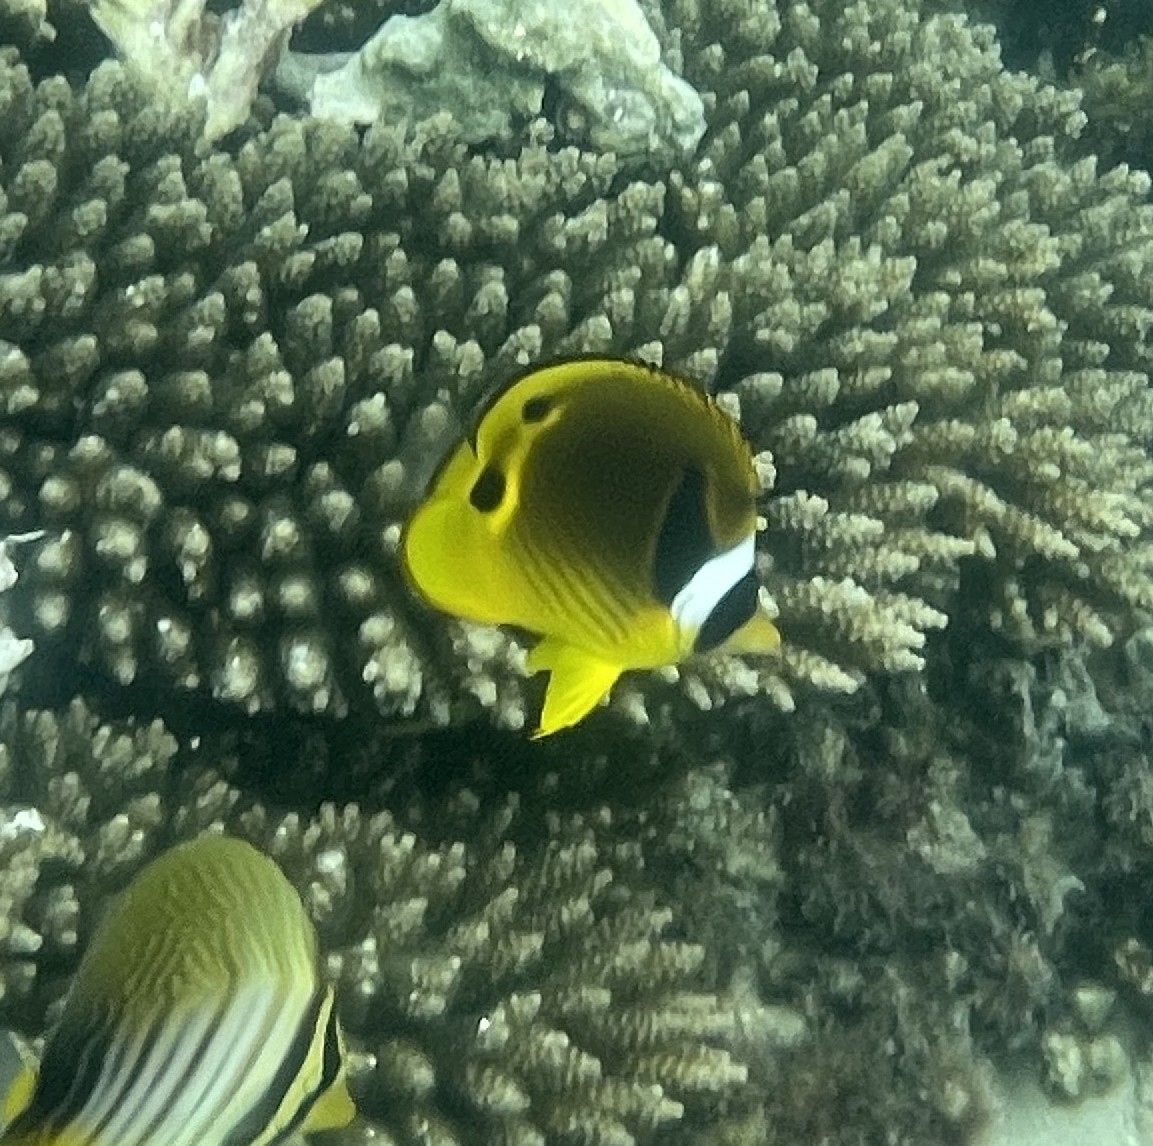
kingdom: Animalia
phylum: Chordata
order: Perciformes
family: Chaetodontidae
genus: Chaetodon
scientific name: Chaetodon lunula
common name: Raccoon butterflyfish
